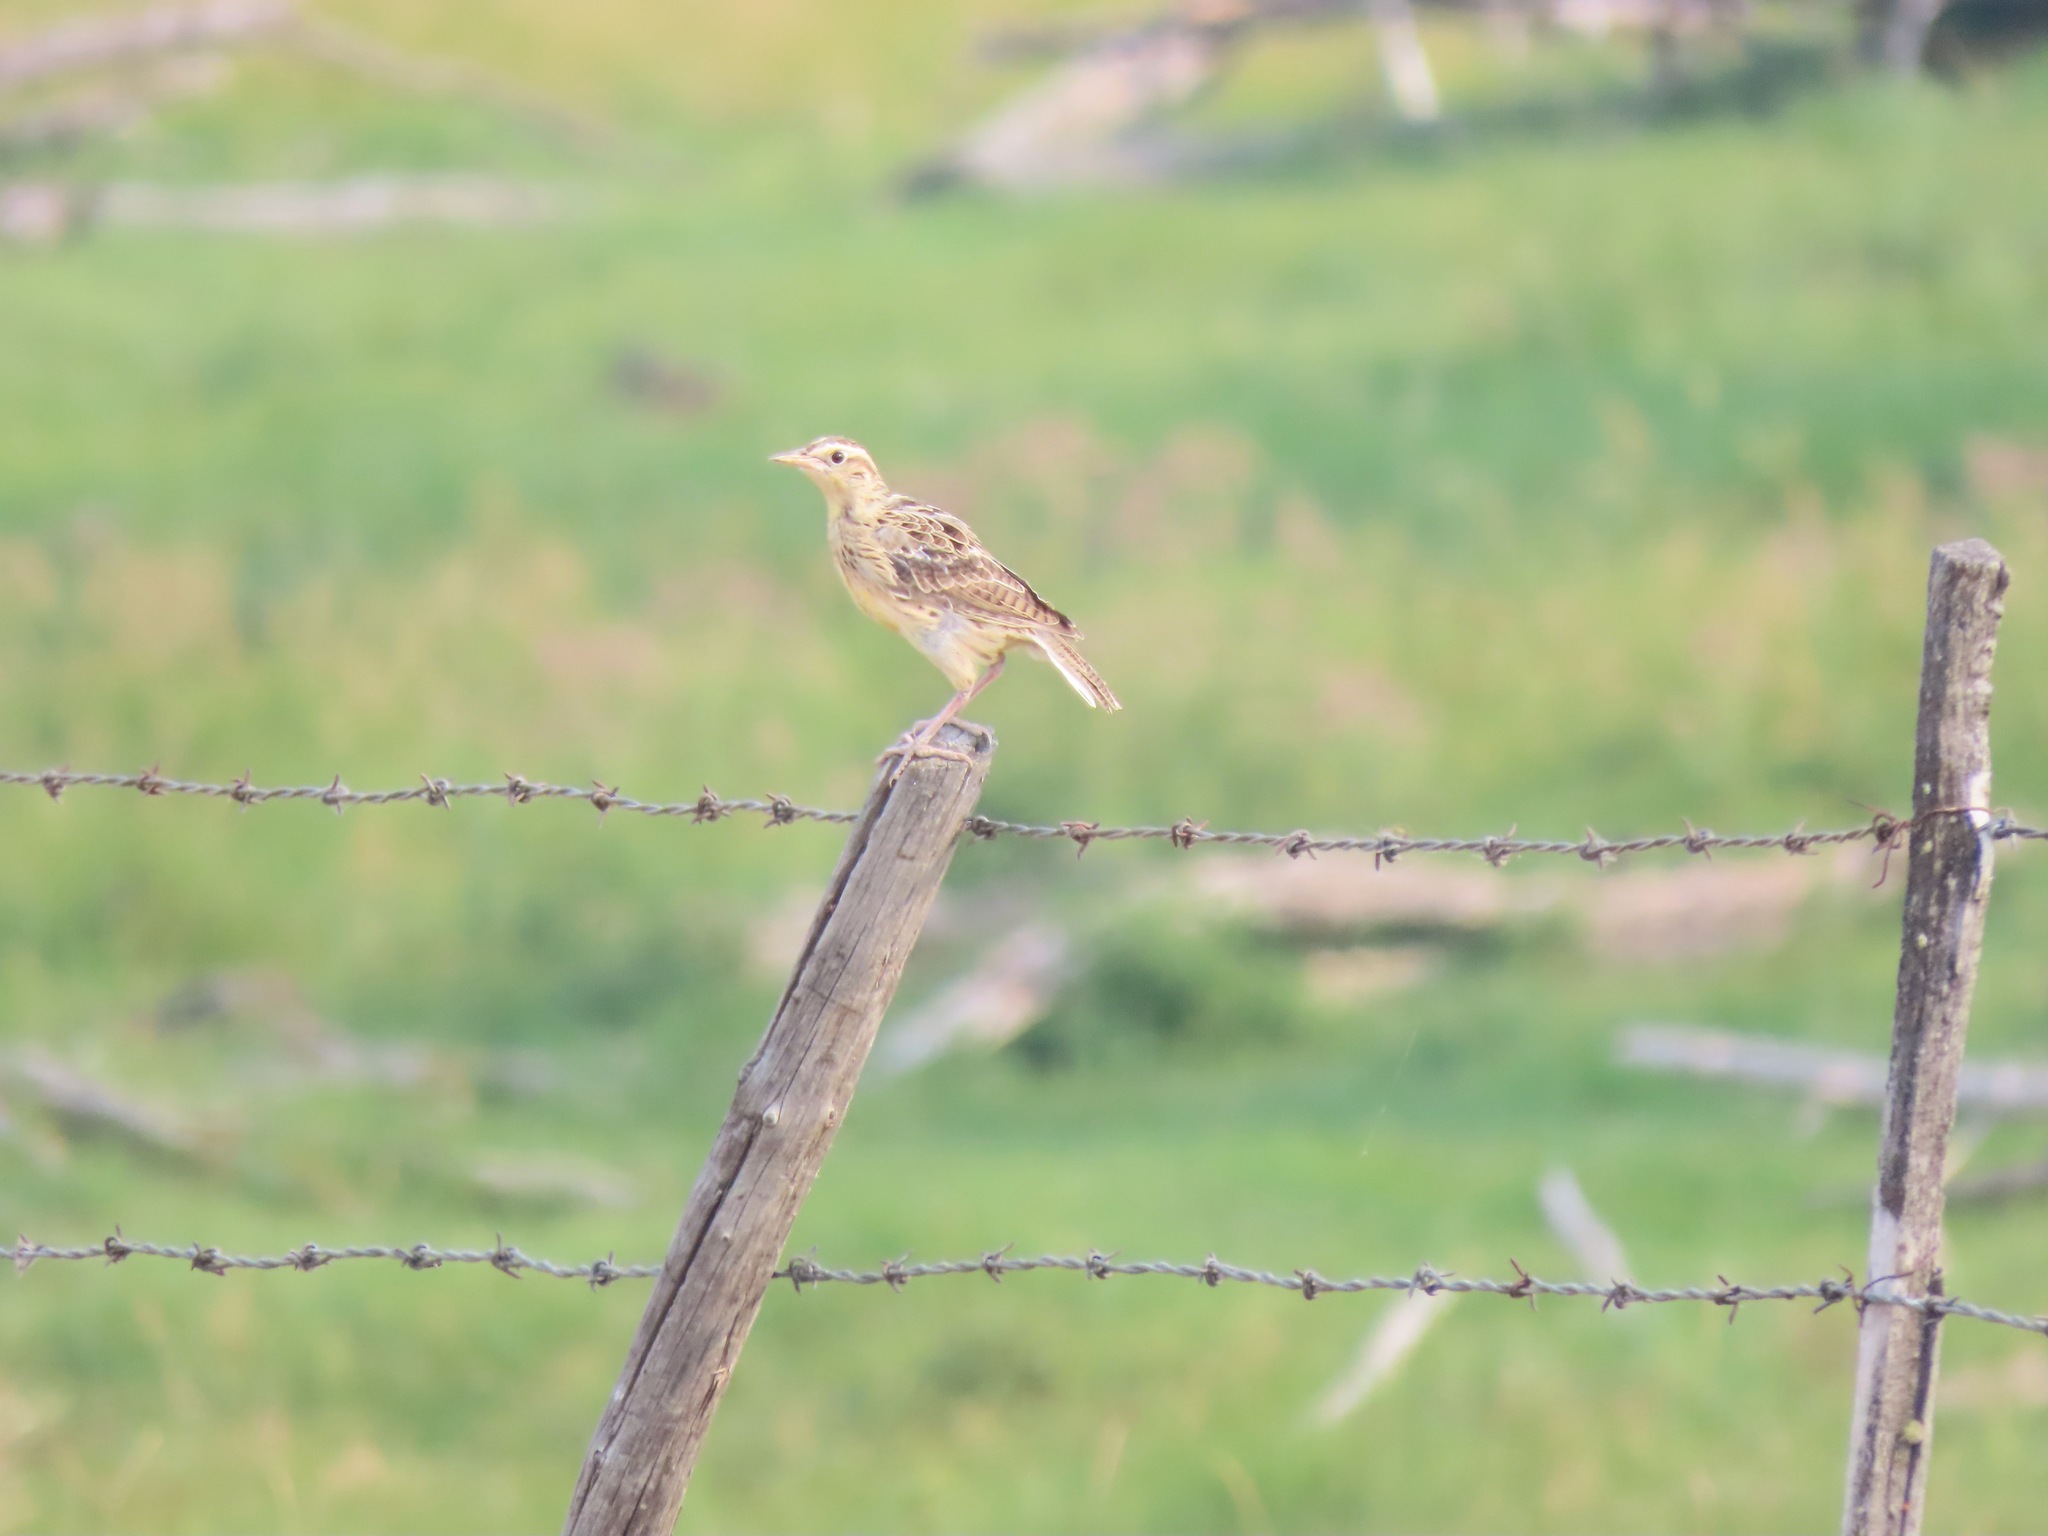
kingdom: Animalia
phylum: Chordata
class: Aves
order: Passeriformes
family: Icteridae
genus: Sturnella
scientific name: Sturnella neglecta
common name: Western meadowlark
